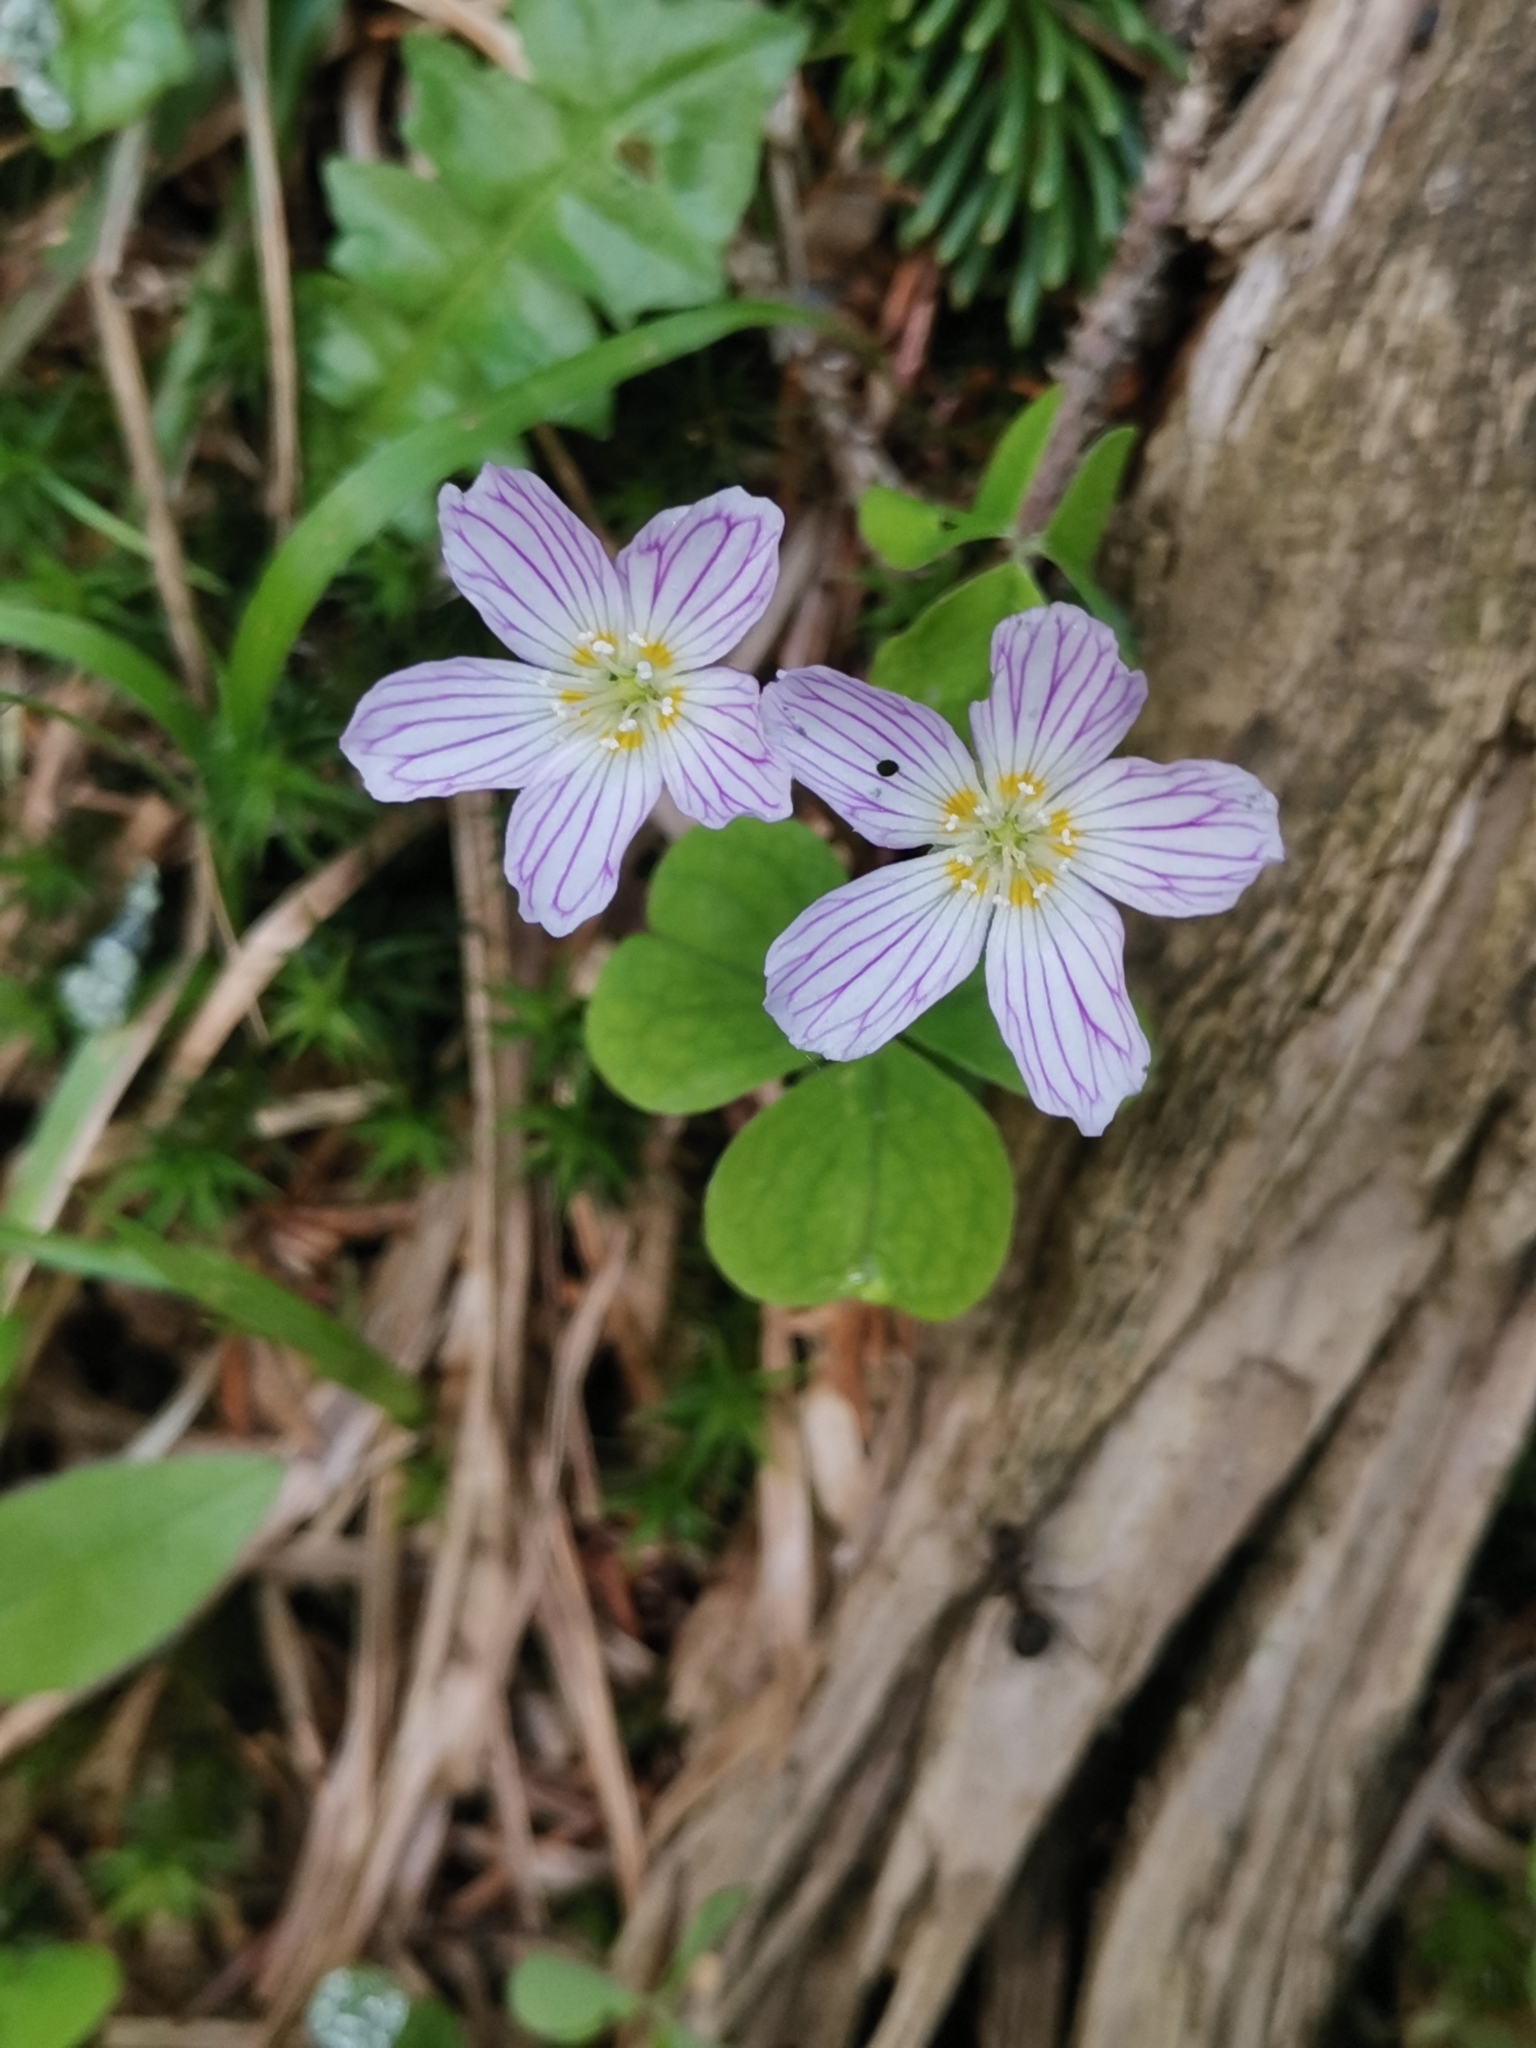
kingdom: Plantae
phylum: Tracheophyta
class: Magnoliopsida
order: Oxalidales
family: Oxalidaceae
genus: Oxalis
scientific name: Oxalis acetosella
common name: Wood-sorrel
